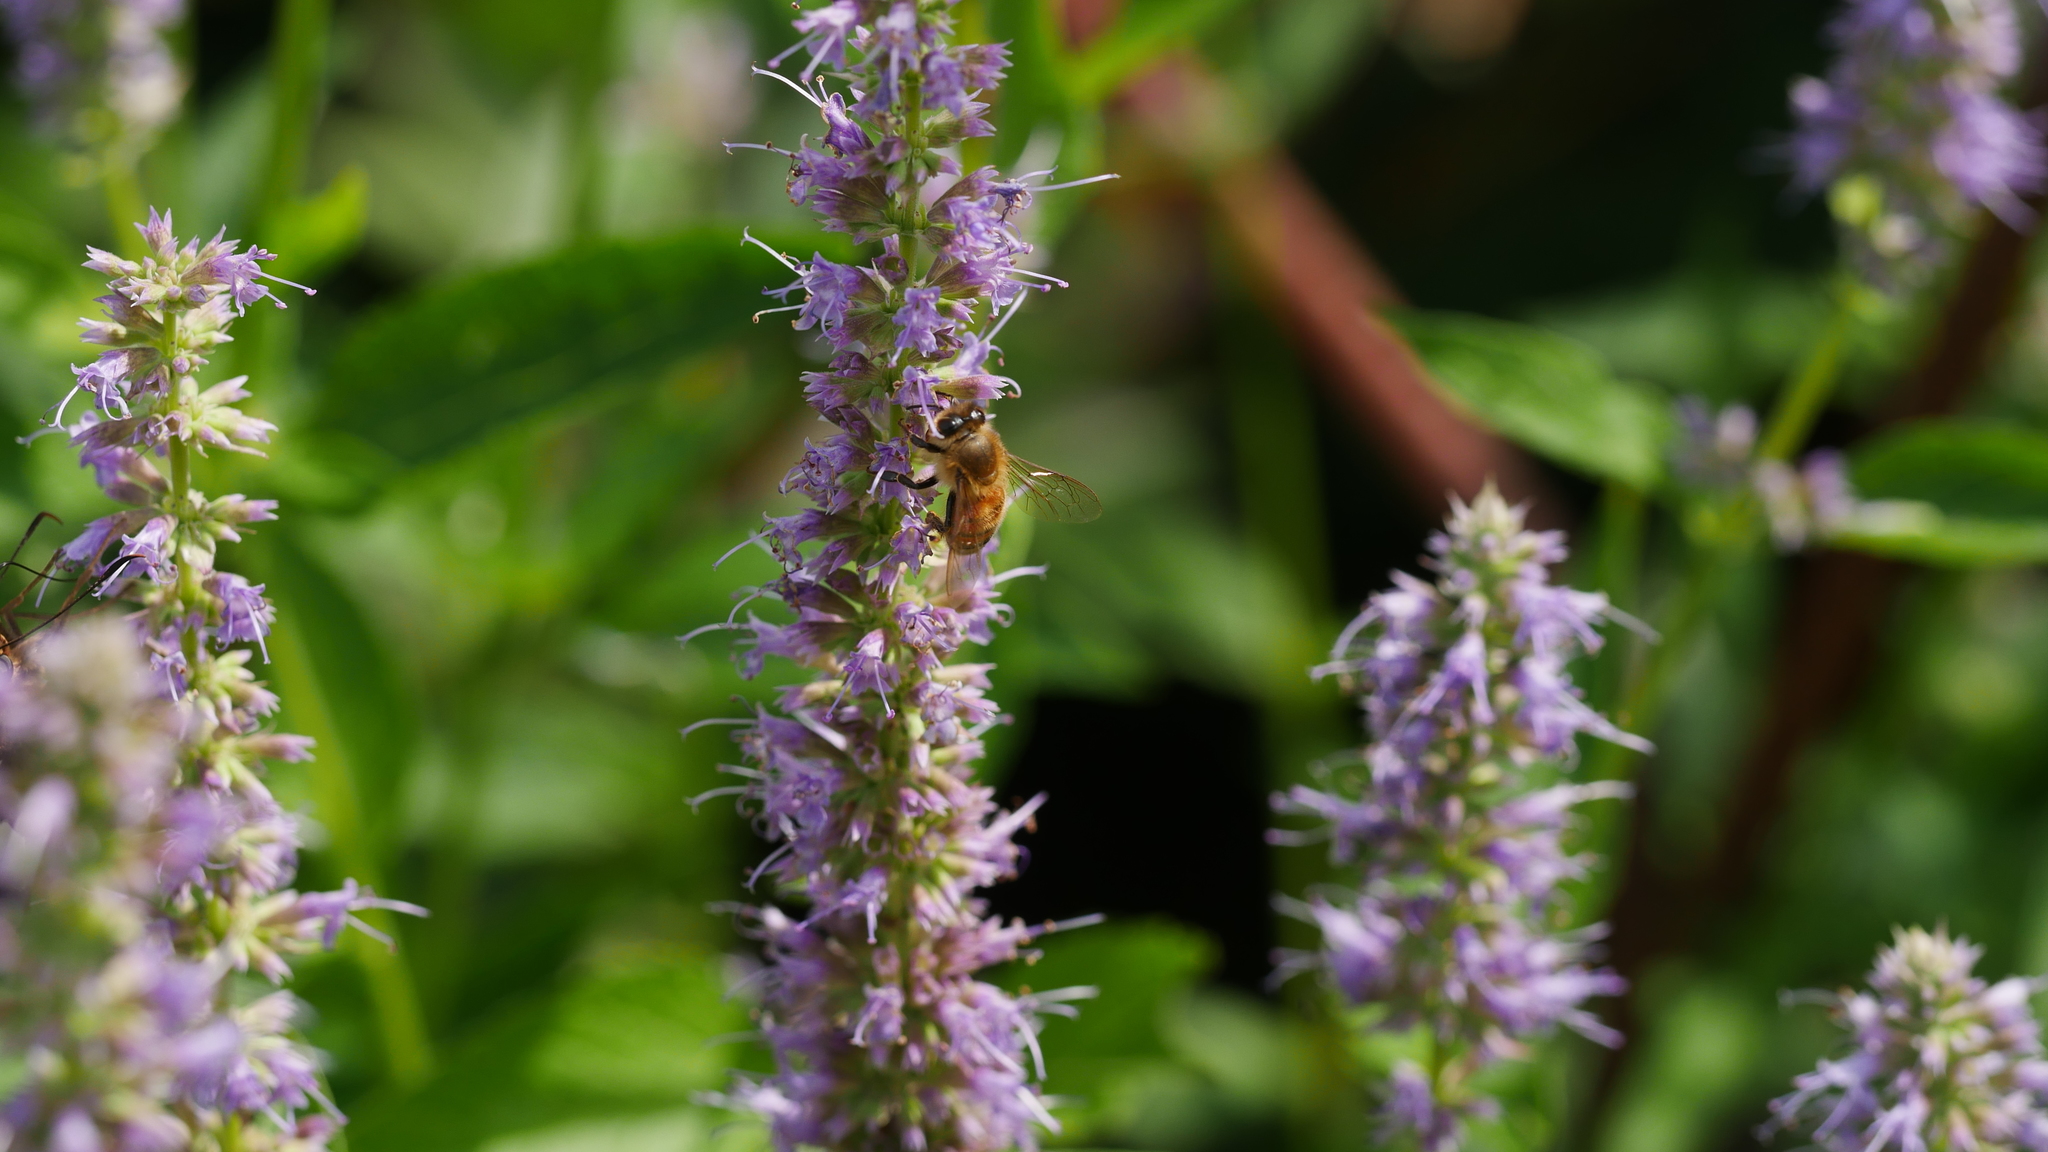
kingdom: Animalia
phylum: Arthropoda
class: Insecta
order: Hymenoptera
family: Apidae
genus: Apis
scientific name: Apis mellifera
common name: Honey bee
